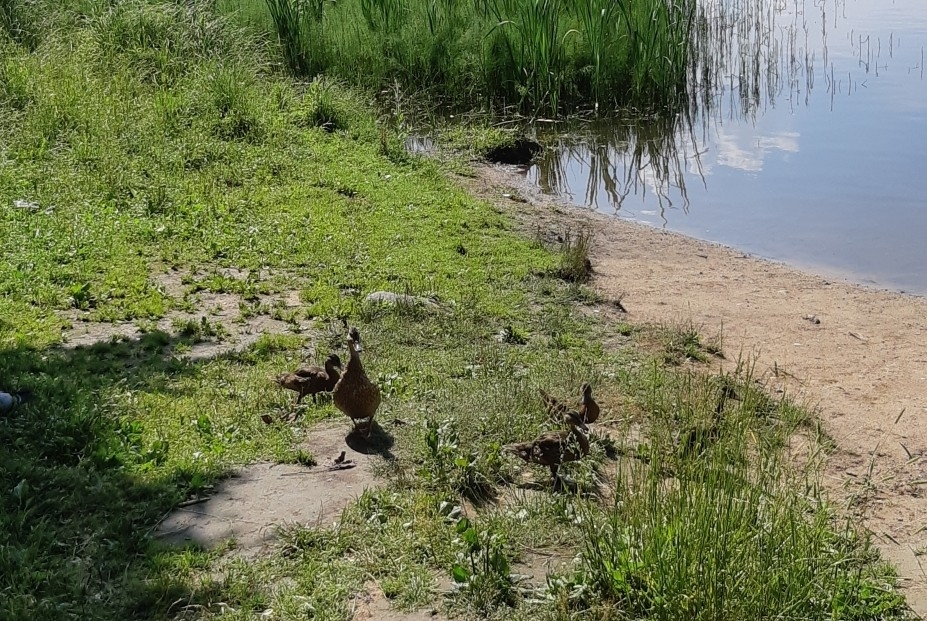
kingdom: Animalia
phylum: Chordata
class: Aves
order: Anseriformes
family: Anatidae
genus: Anas
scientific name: Anas platyrhynchos
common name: Mallard
